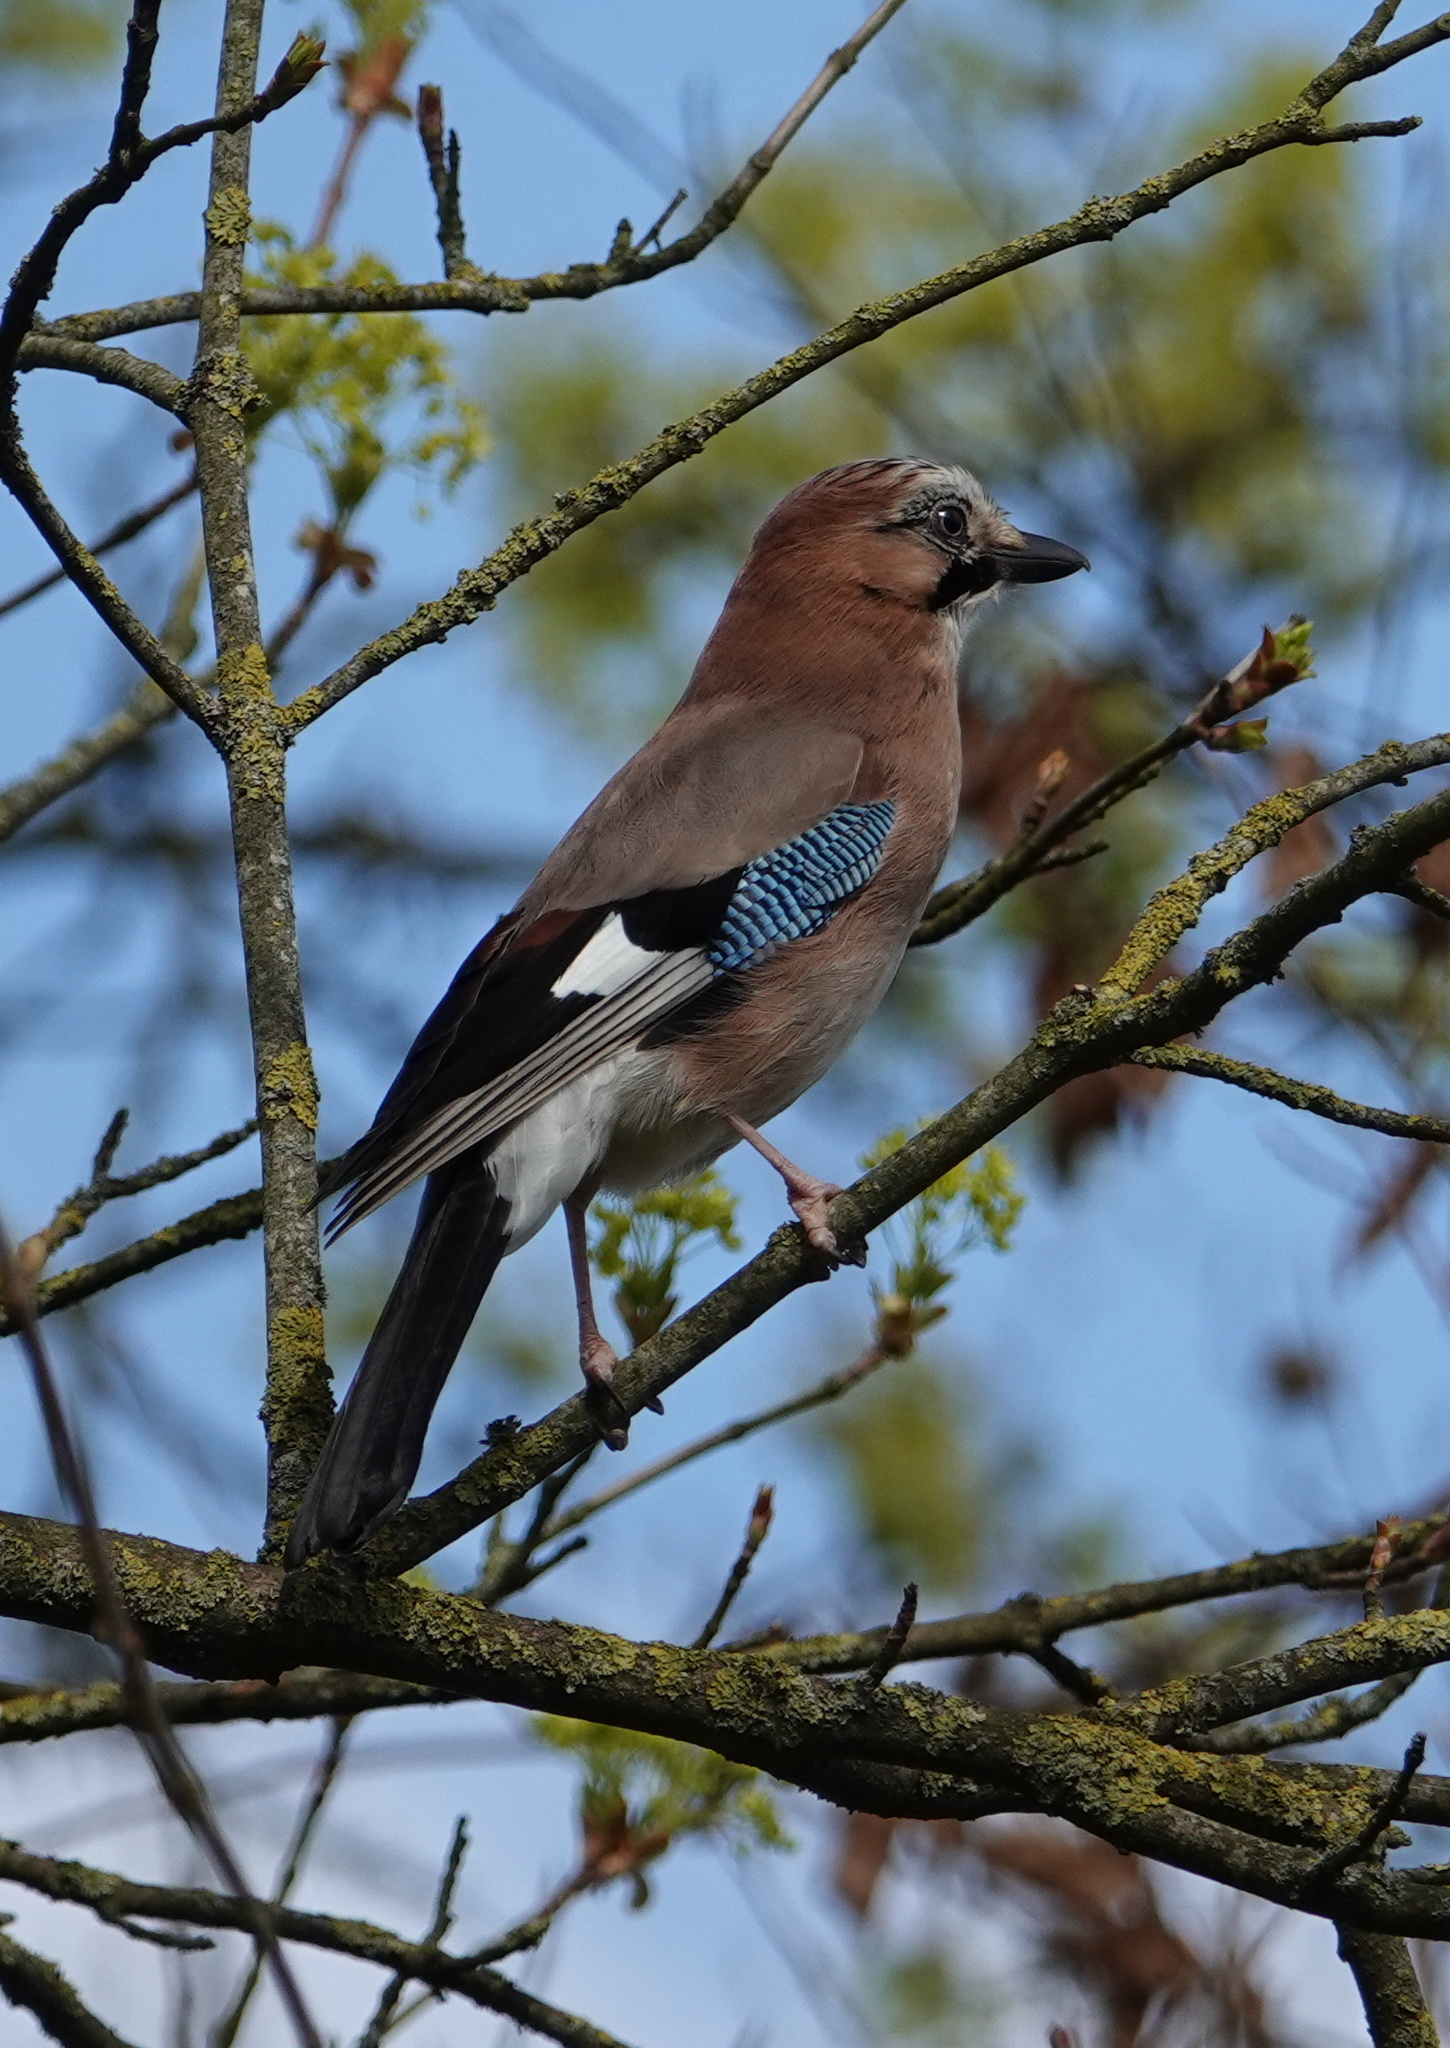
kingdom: Animalia
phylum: Chordata
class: Aves
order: Passeriformes
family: Corvidae
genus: Garrulus
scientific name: Garrulus glandarius
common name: Eurasian jay
